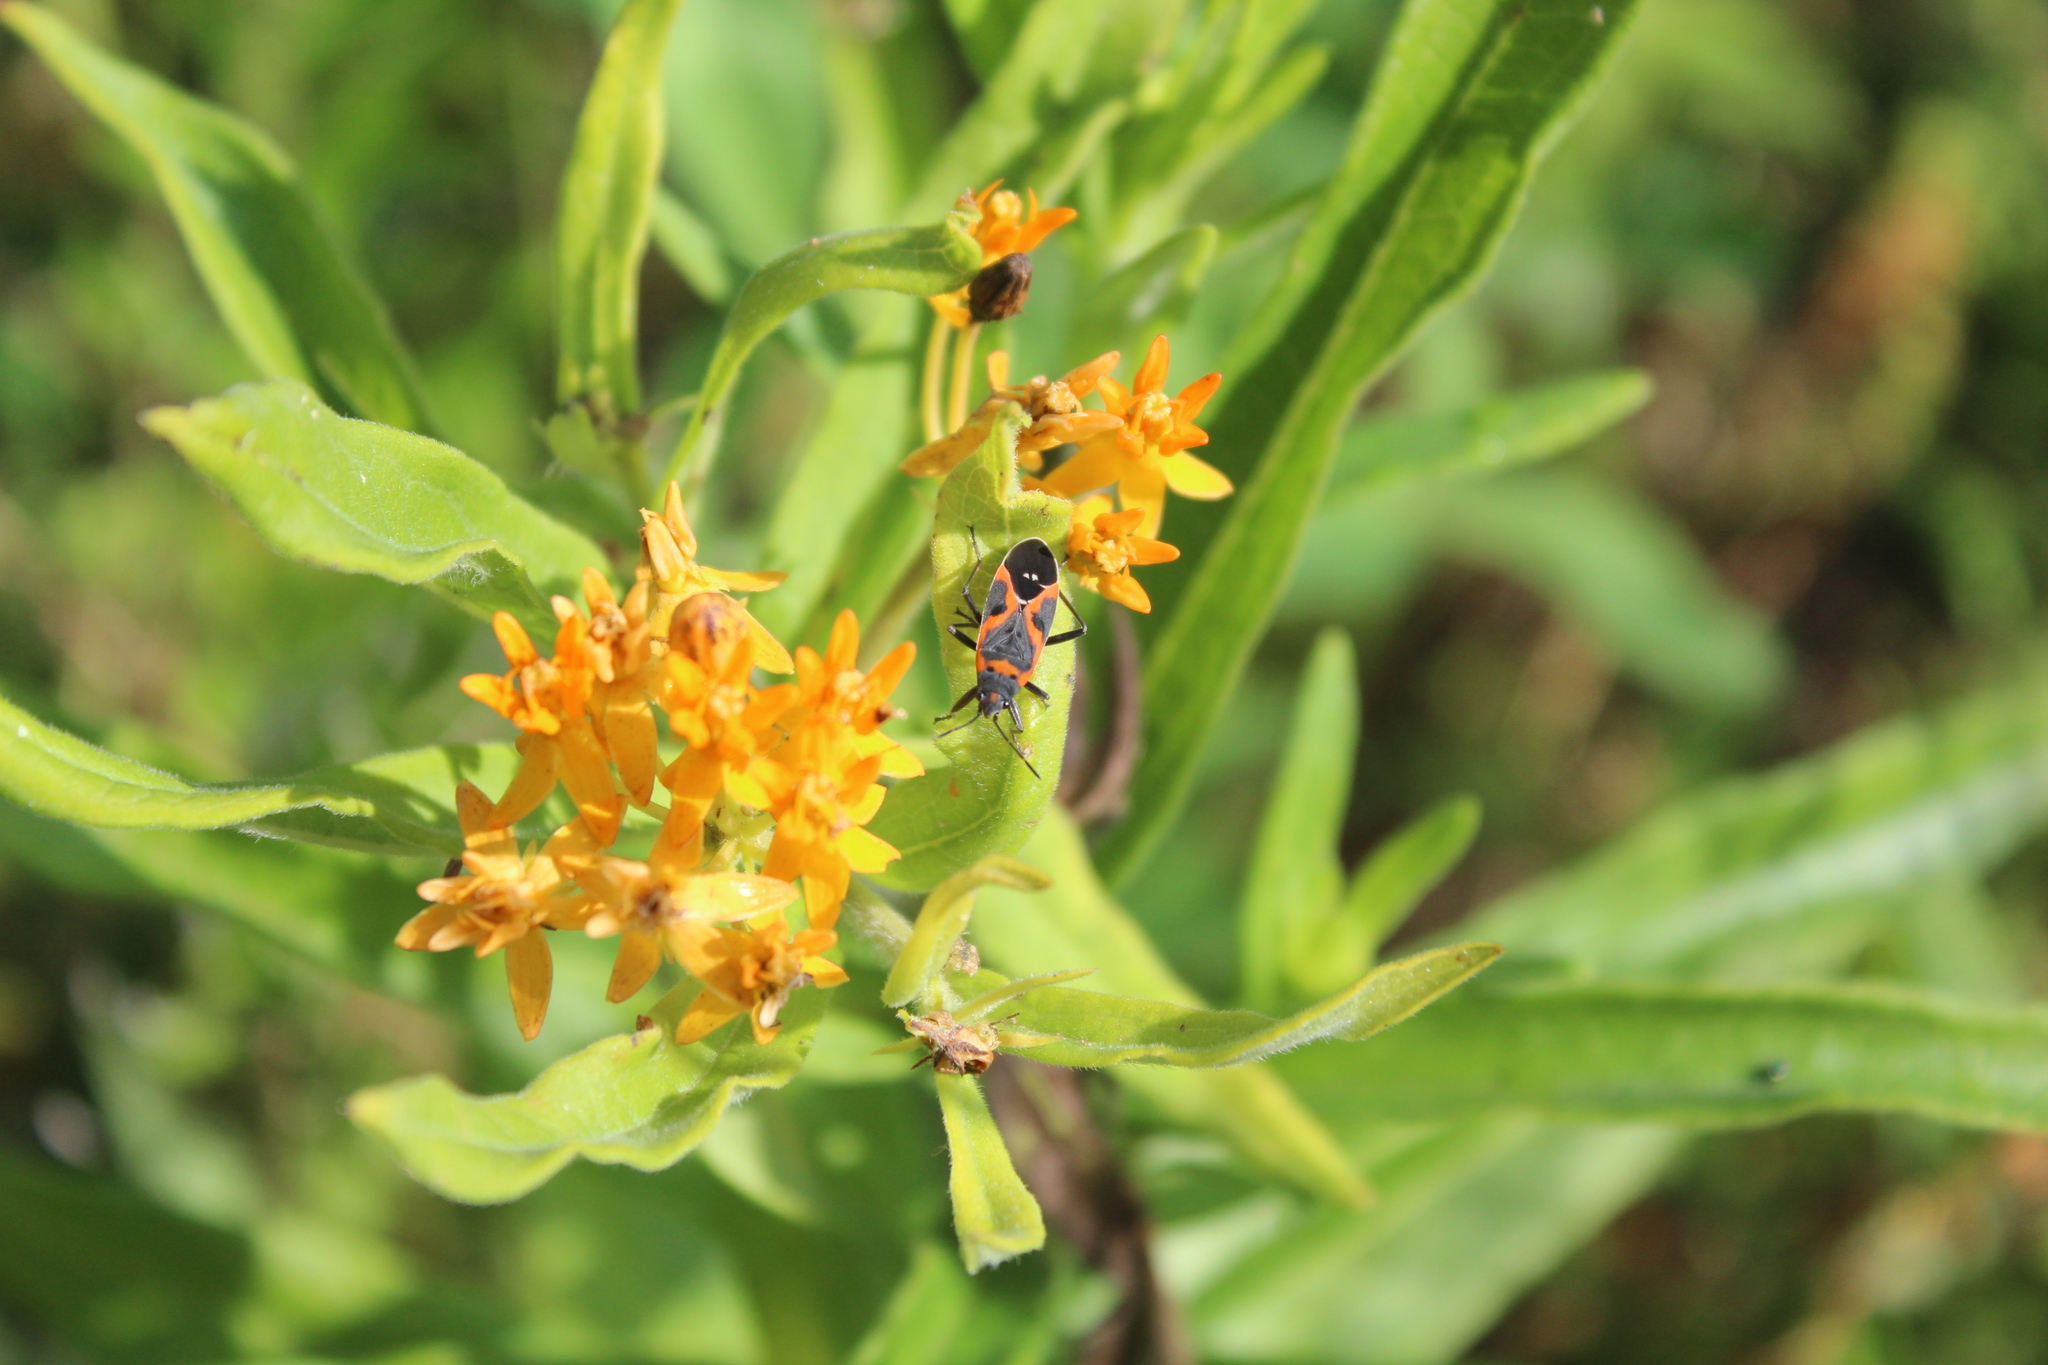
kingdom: Animalia
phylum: Arthropoda
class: Insecta
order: Hemiptera
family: Lygaeidae
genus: Lygaeus
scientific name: Lygaeus kalmii
